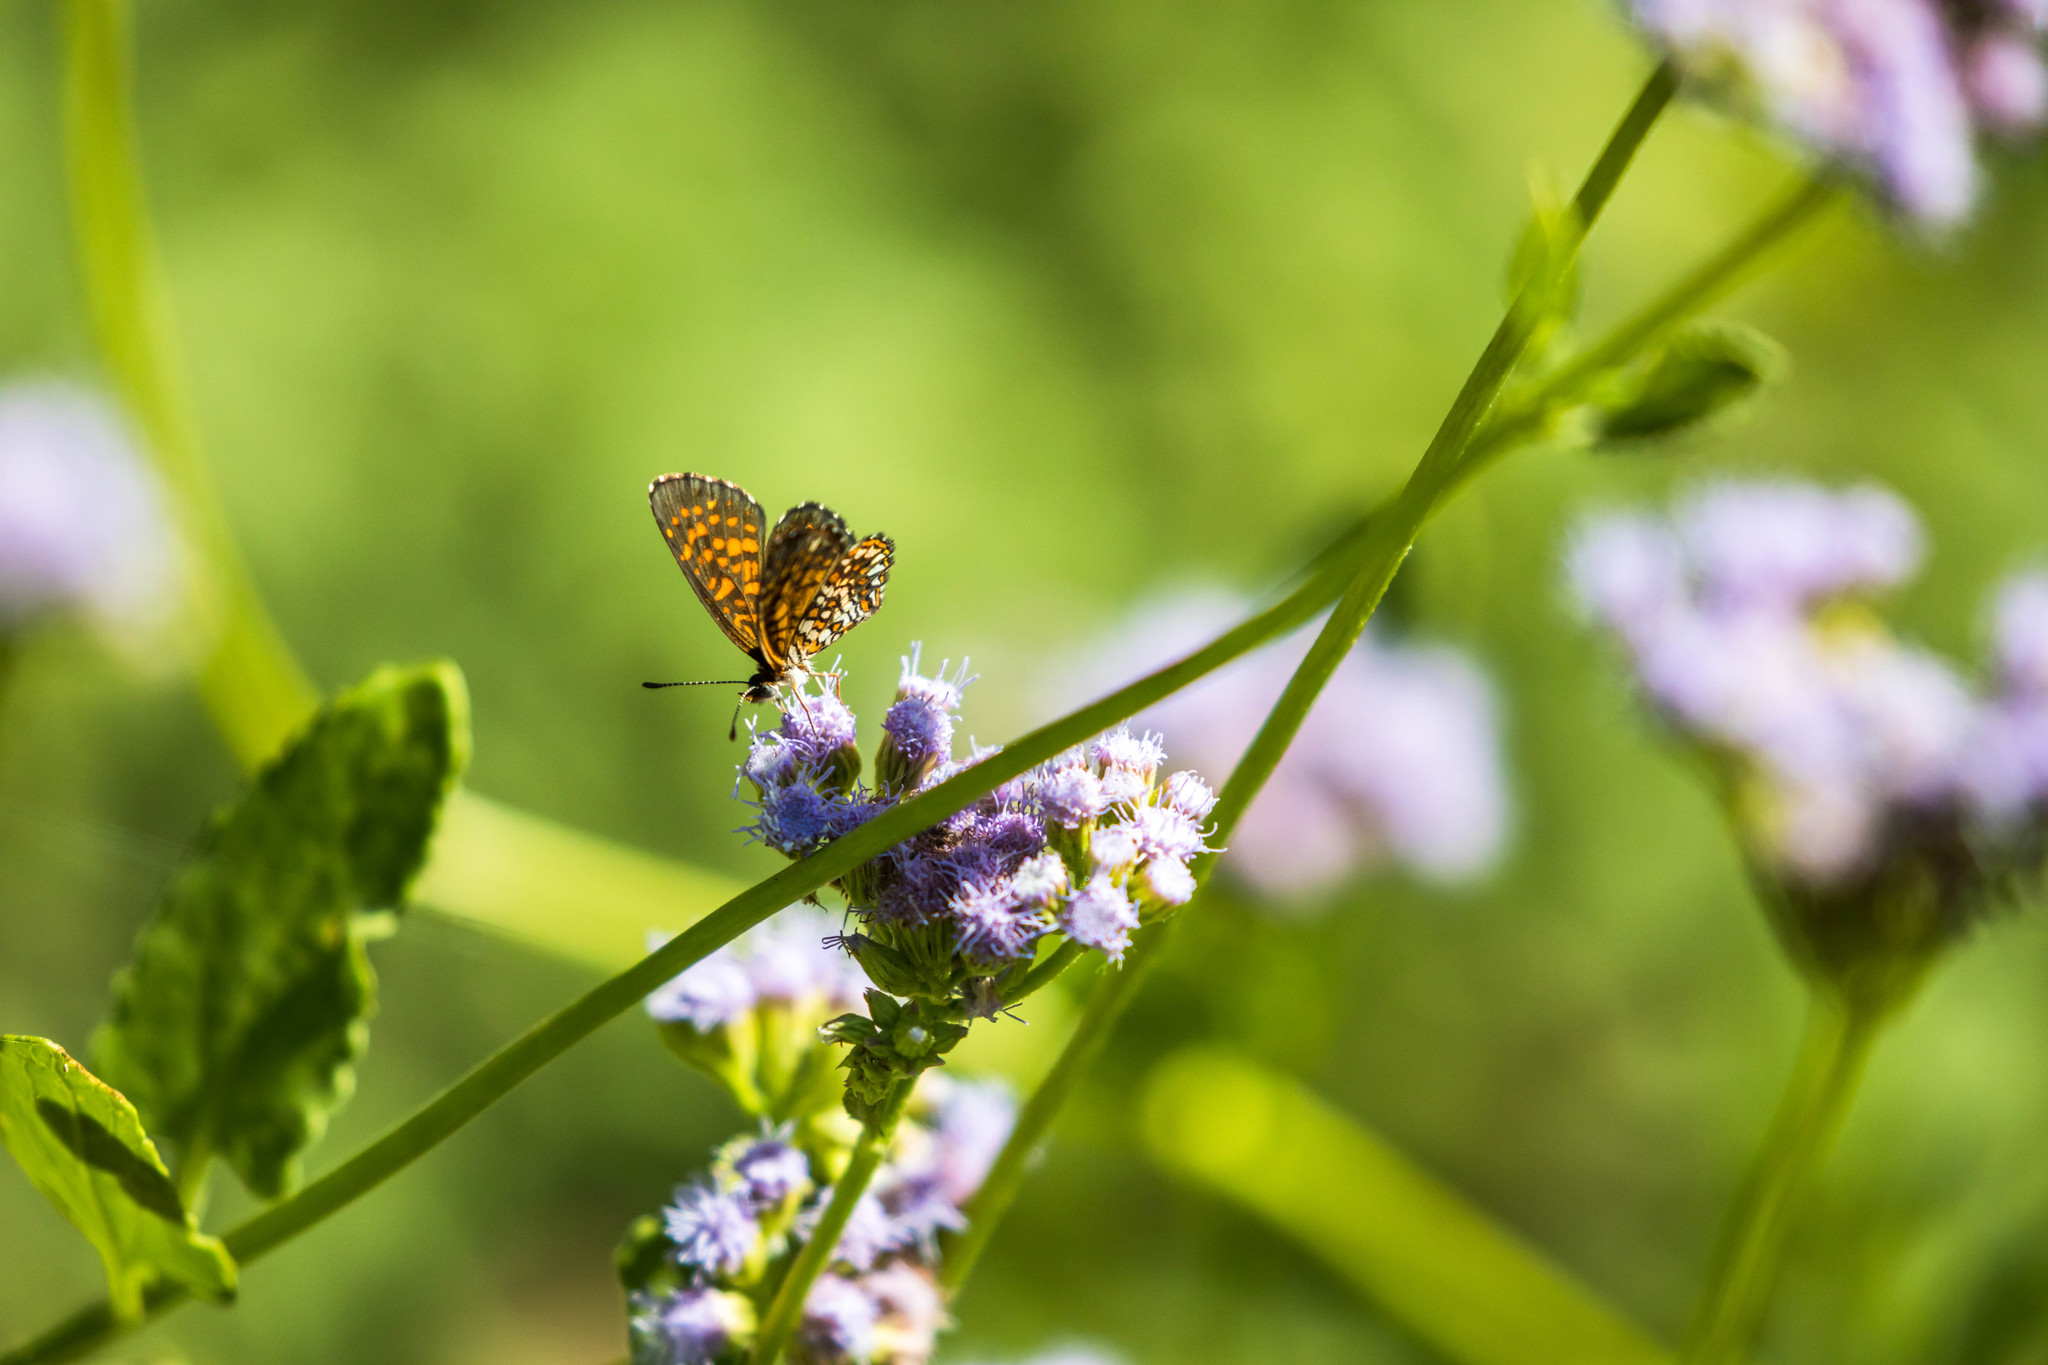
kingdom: Animalia
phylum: Arthropoda
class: Insecta
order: Lepidoptera
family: Nymphalidae
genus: Texola
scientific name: Texola elada
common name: Elada checkerspot
